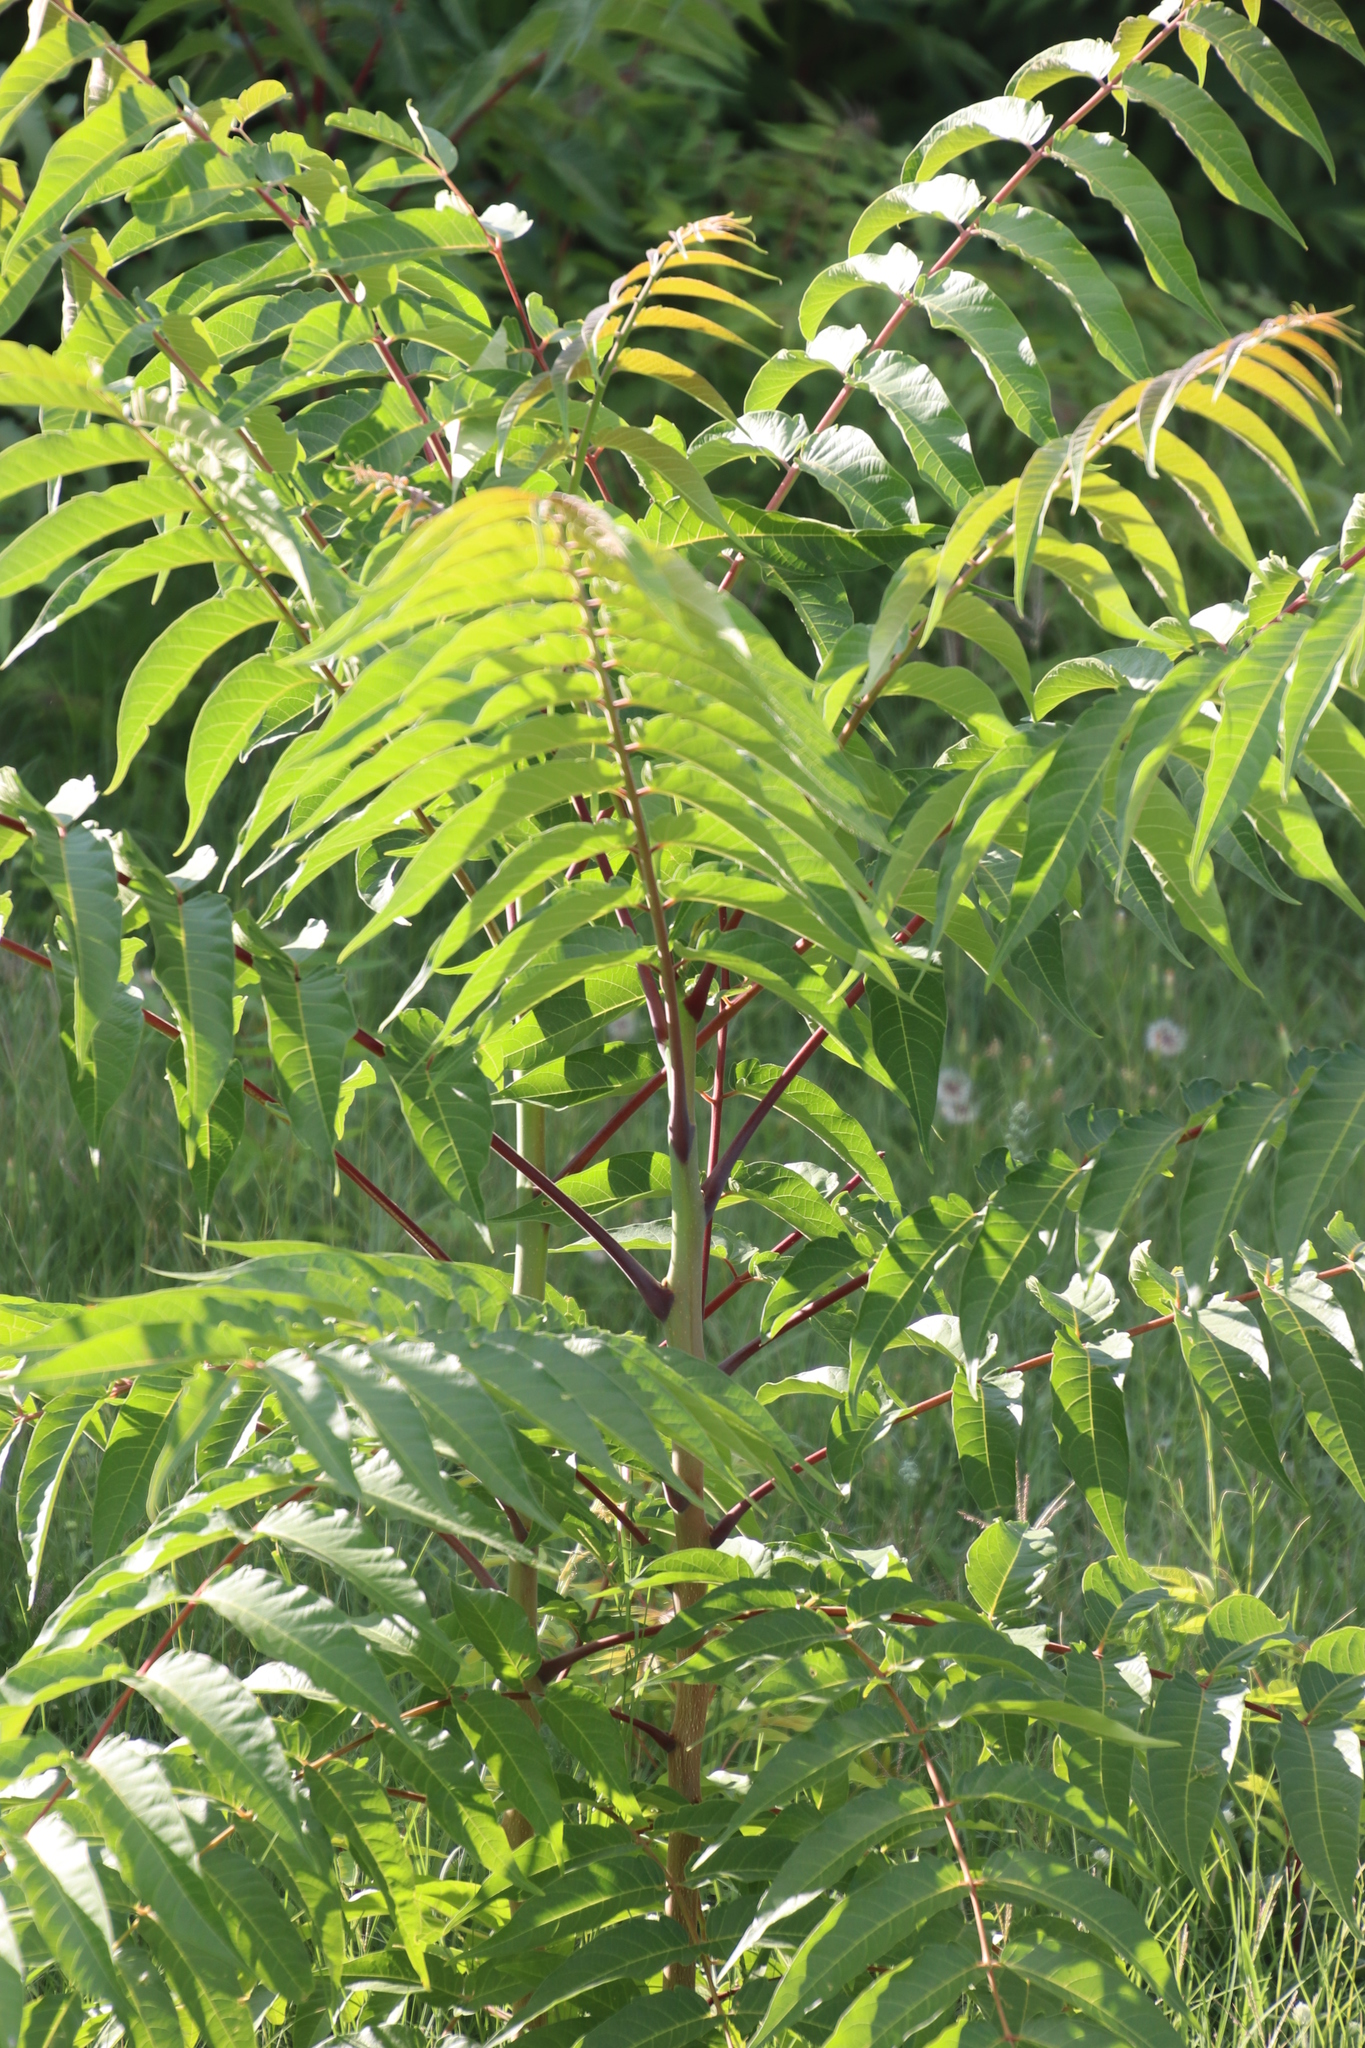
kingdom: Plantae
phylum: Tracheophyta
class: Magnoliopsida
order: Sapindales
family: Simaroubaceae
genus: Ailanthus
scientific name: Ailanthus altissima
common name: Tree-of-heaven
